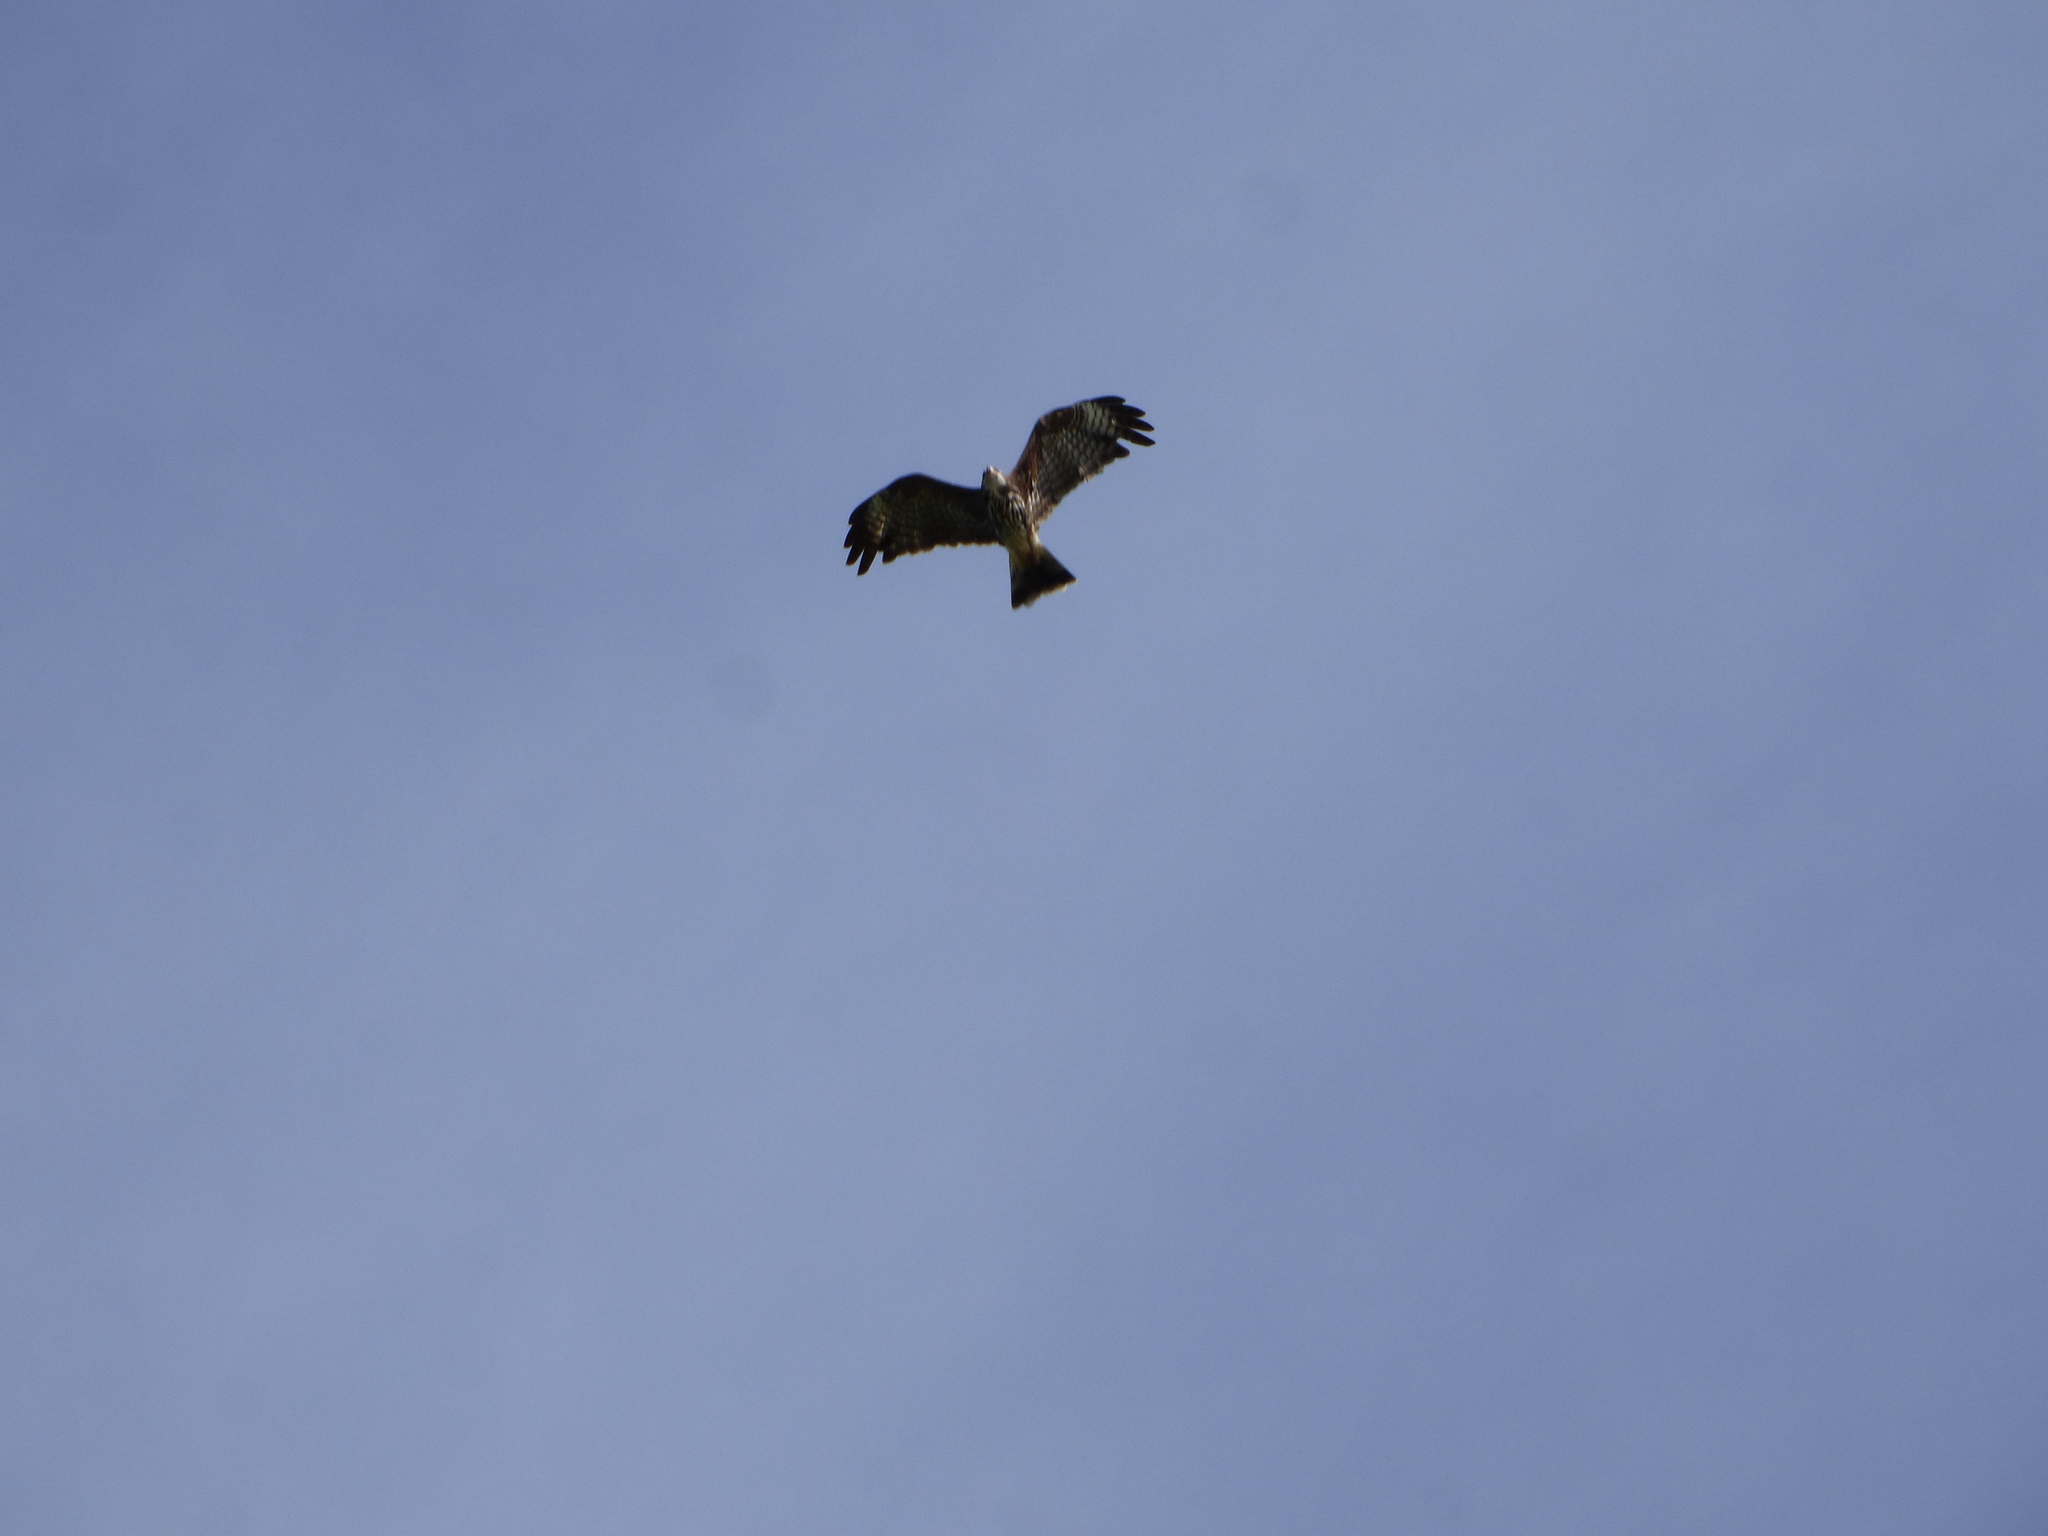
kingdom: Animalia
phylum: Chordata
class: Aves
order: Accipitriformes
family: Accipitridae
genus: Rostrhamus
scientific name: Rostrhamus sociabilis
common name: Snail kite
